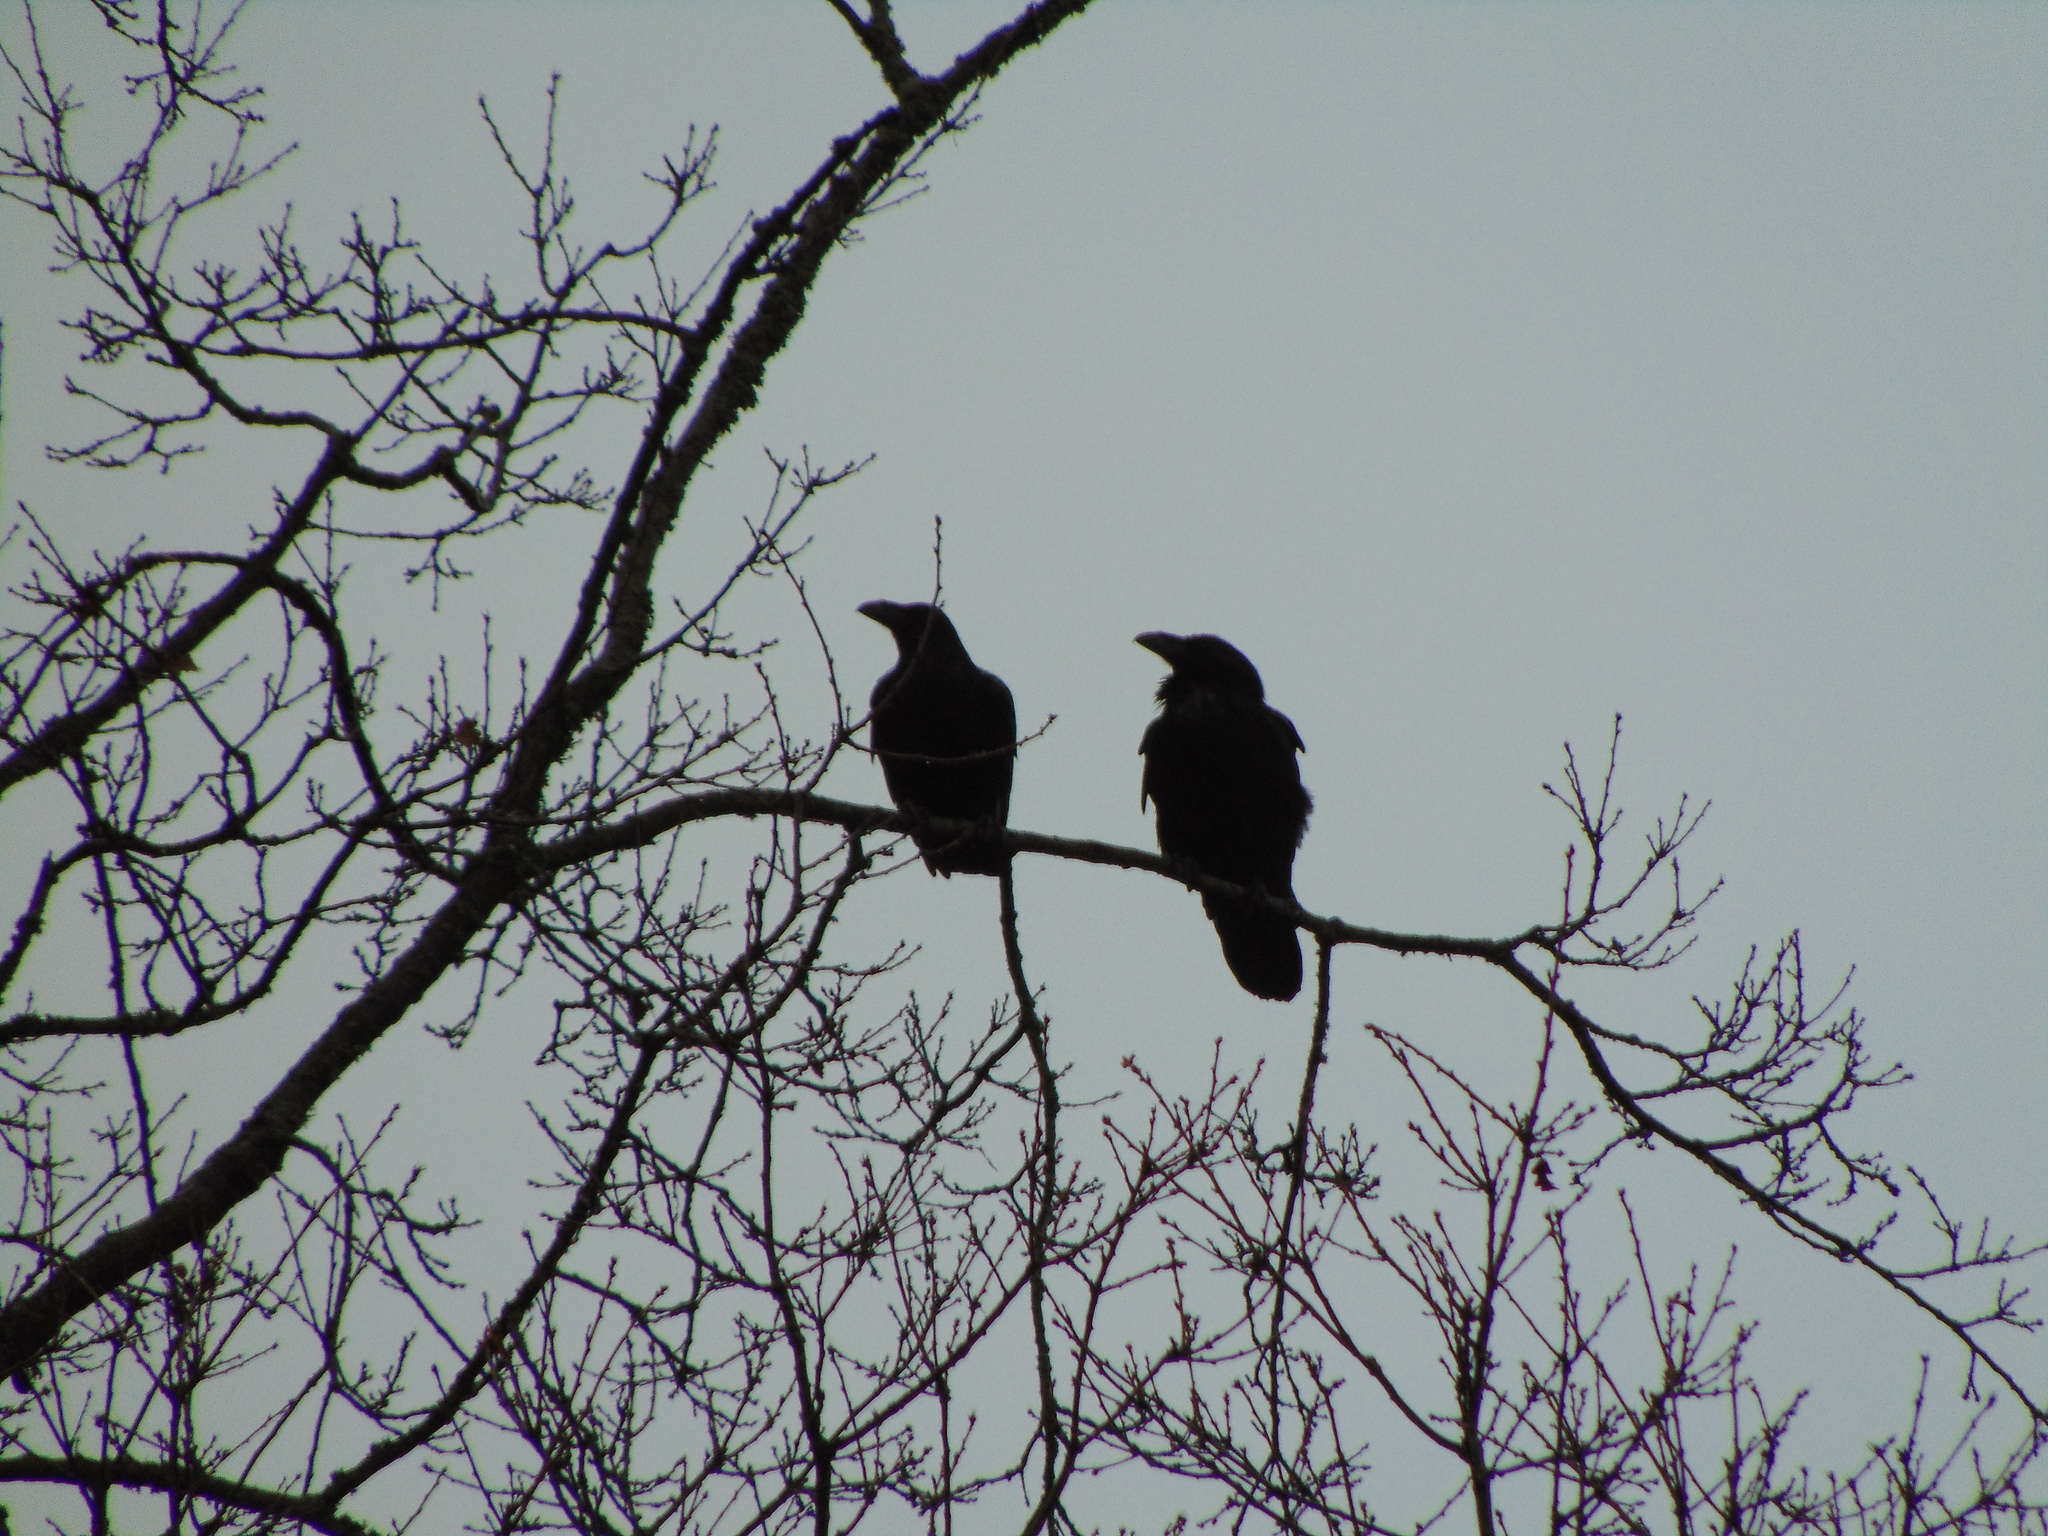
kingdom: Animalia
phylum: Chordata
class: Aves
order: Passeriformes
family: Corvidae
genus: Corvus
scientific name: Corvus corax
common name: Common raven
